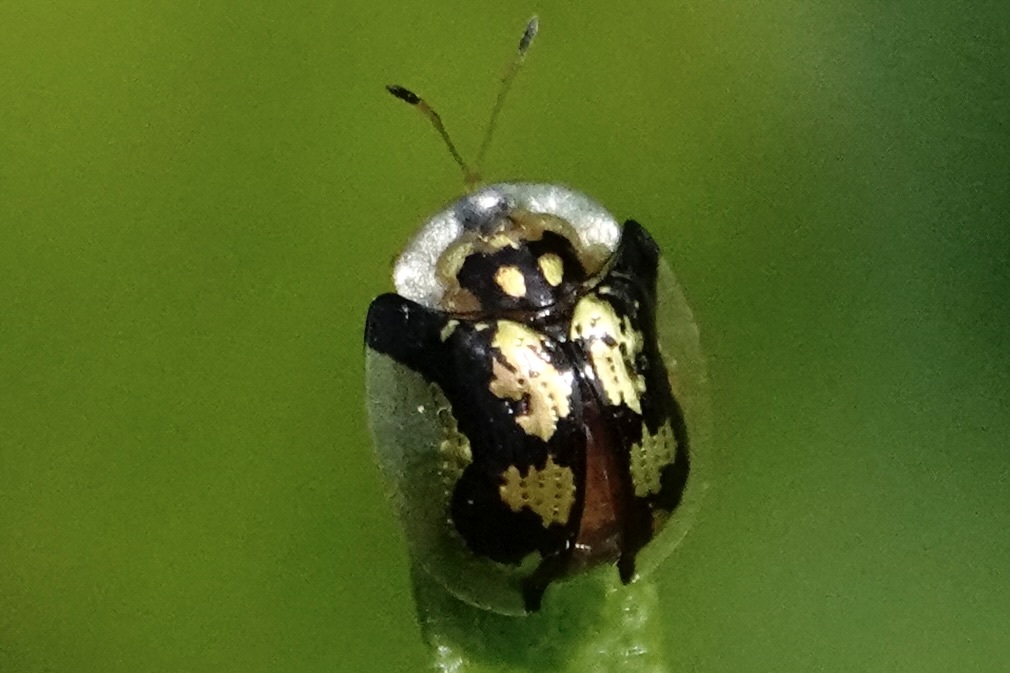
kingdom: Animalia
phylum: Arthropoda
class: Insecta
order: Coleoptera
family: Chrysomelidae
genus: Deloyala
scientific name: Deloyala guttata
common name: Mottled tortoise beetle
